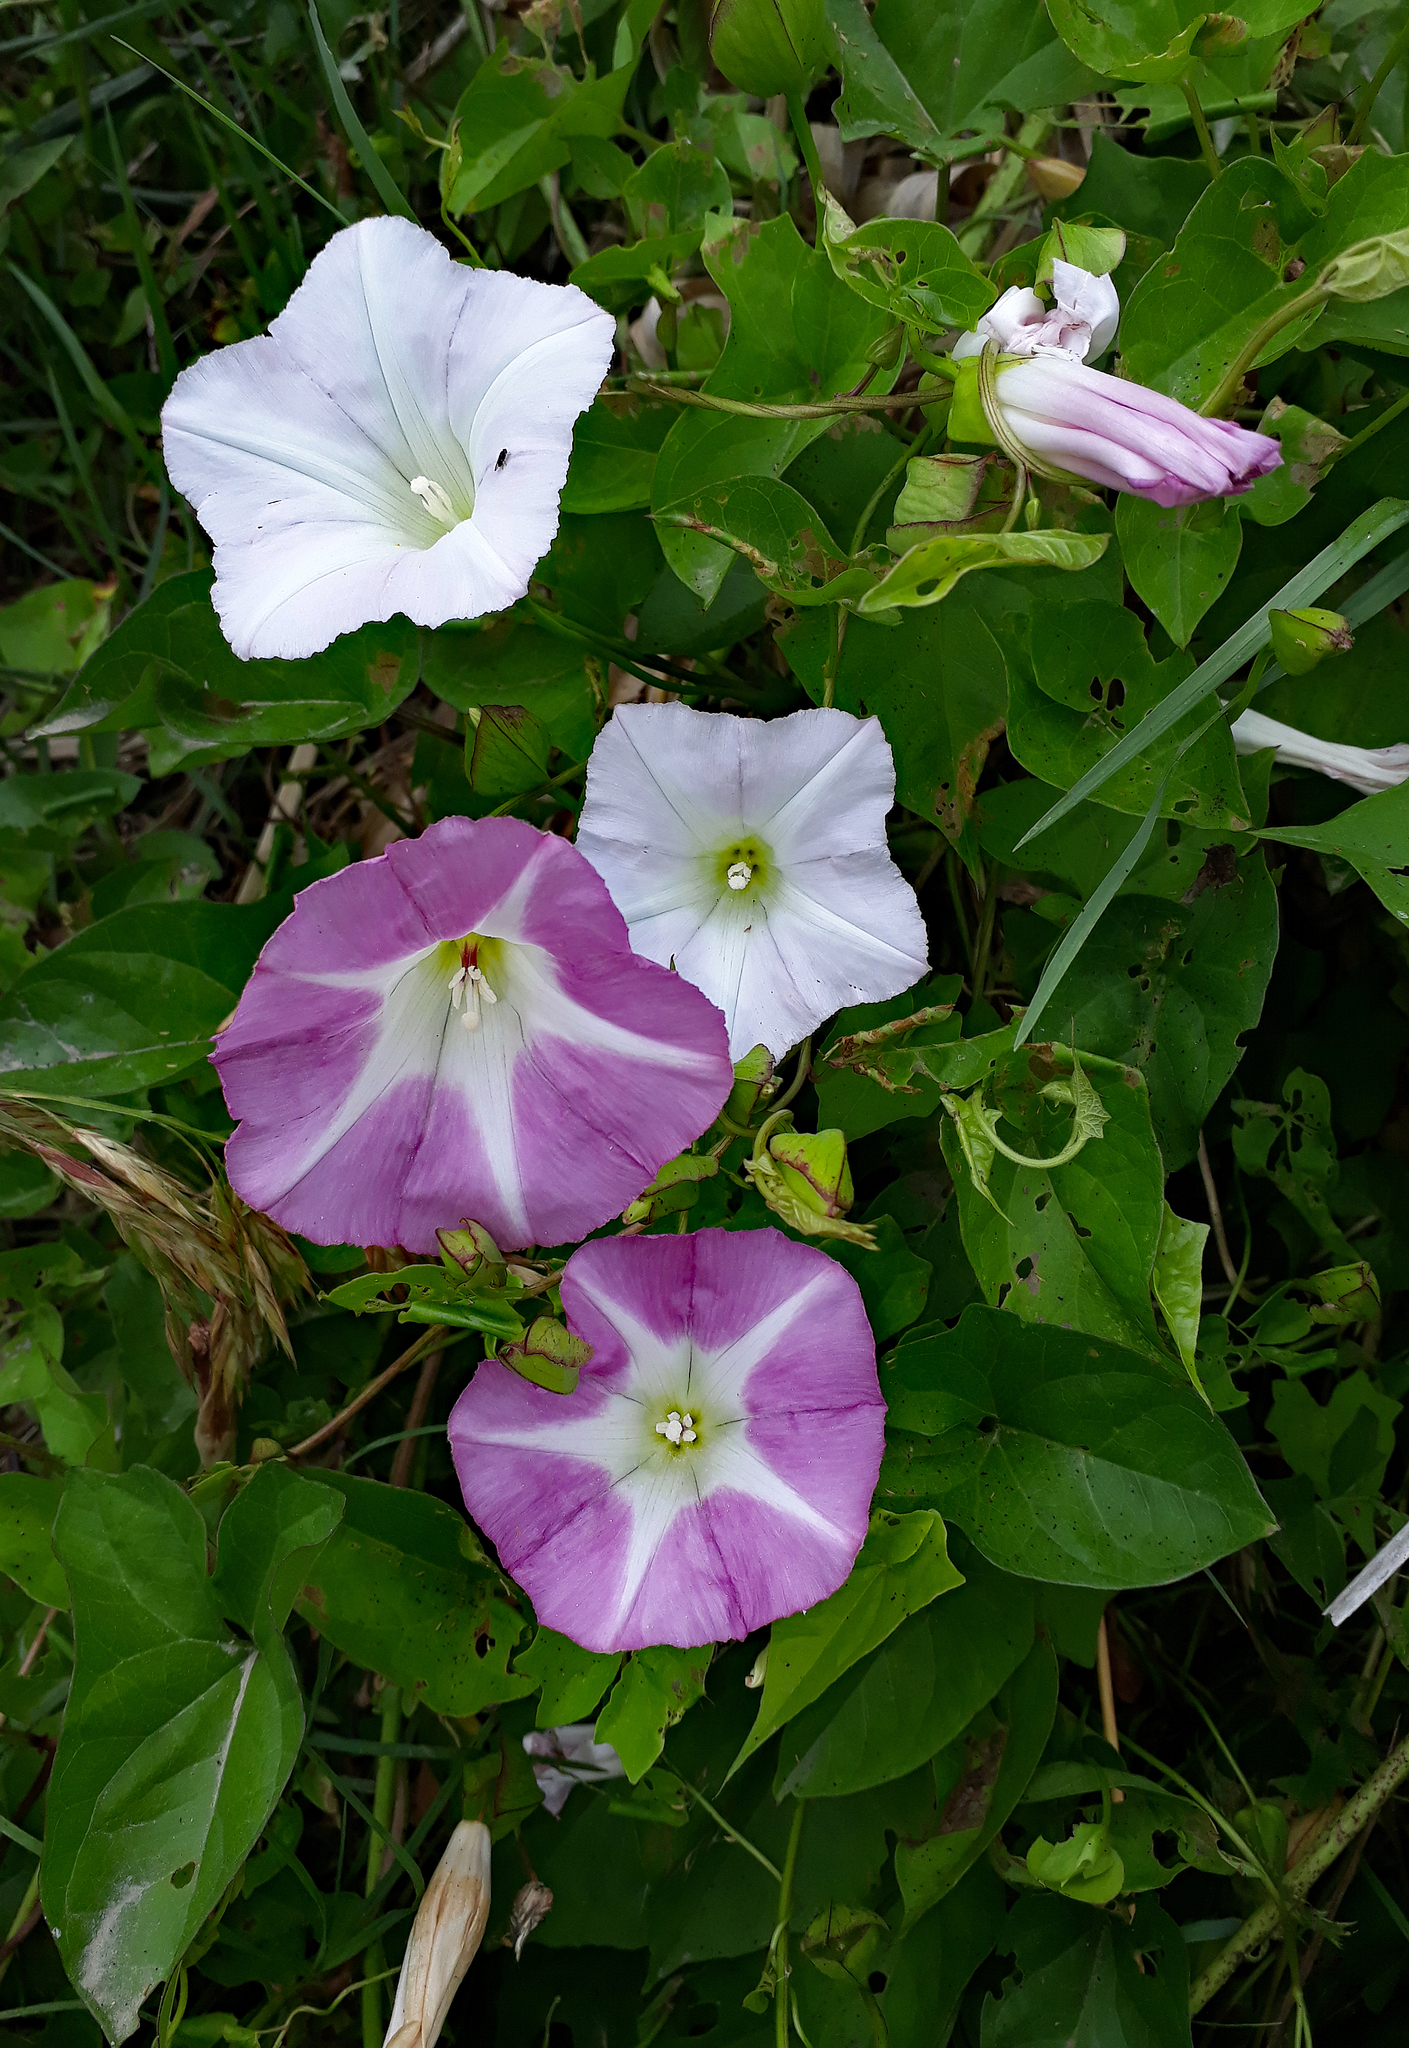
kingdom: Plantae
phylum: Tracheophyta
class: Magnoliopsida
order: Solanales
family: Convolvulaceae
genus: Calystegia
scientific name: Calystegia
